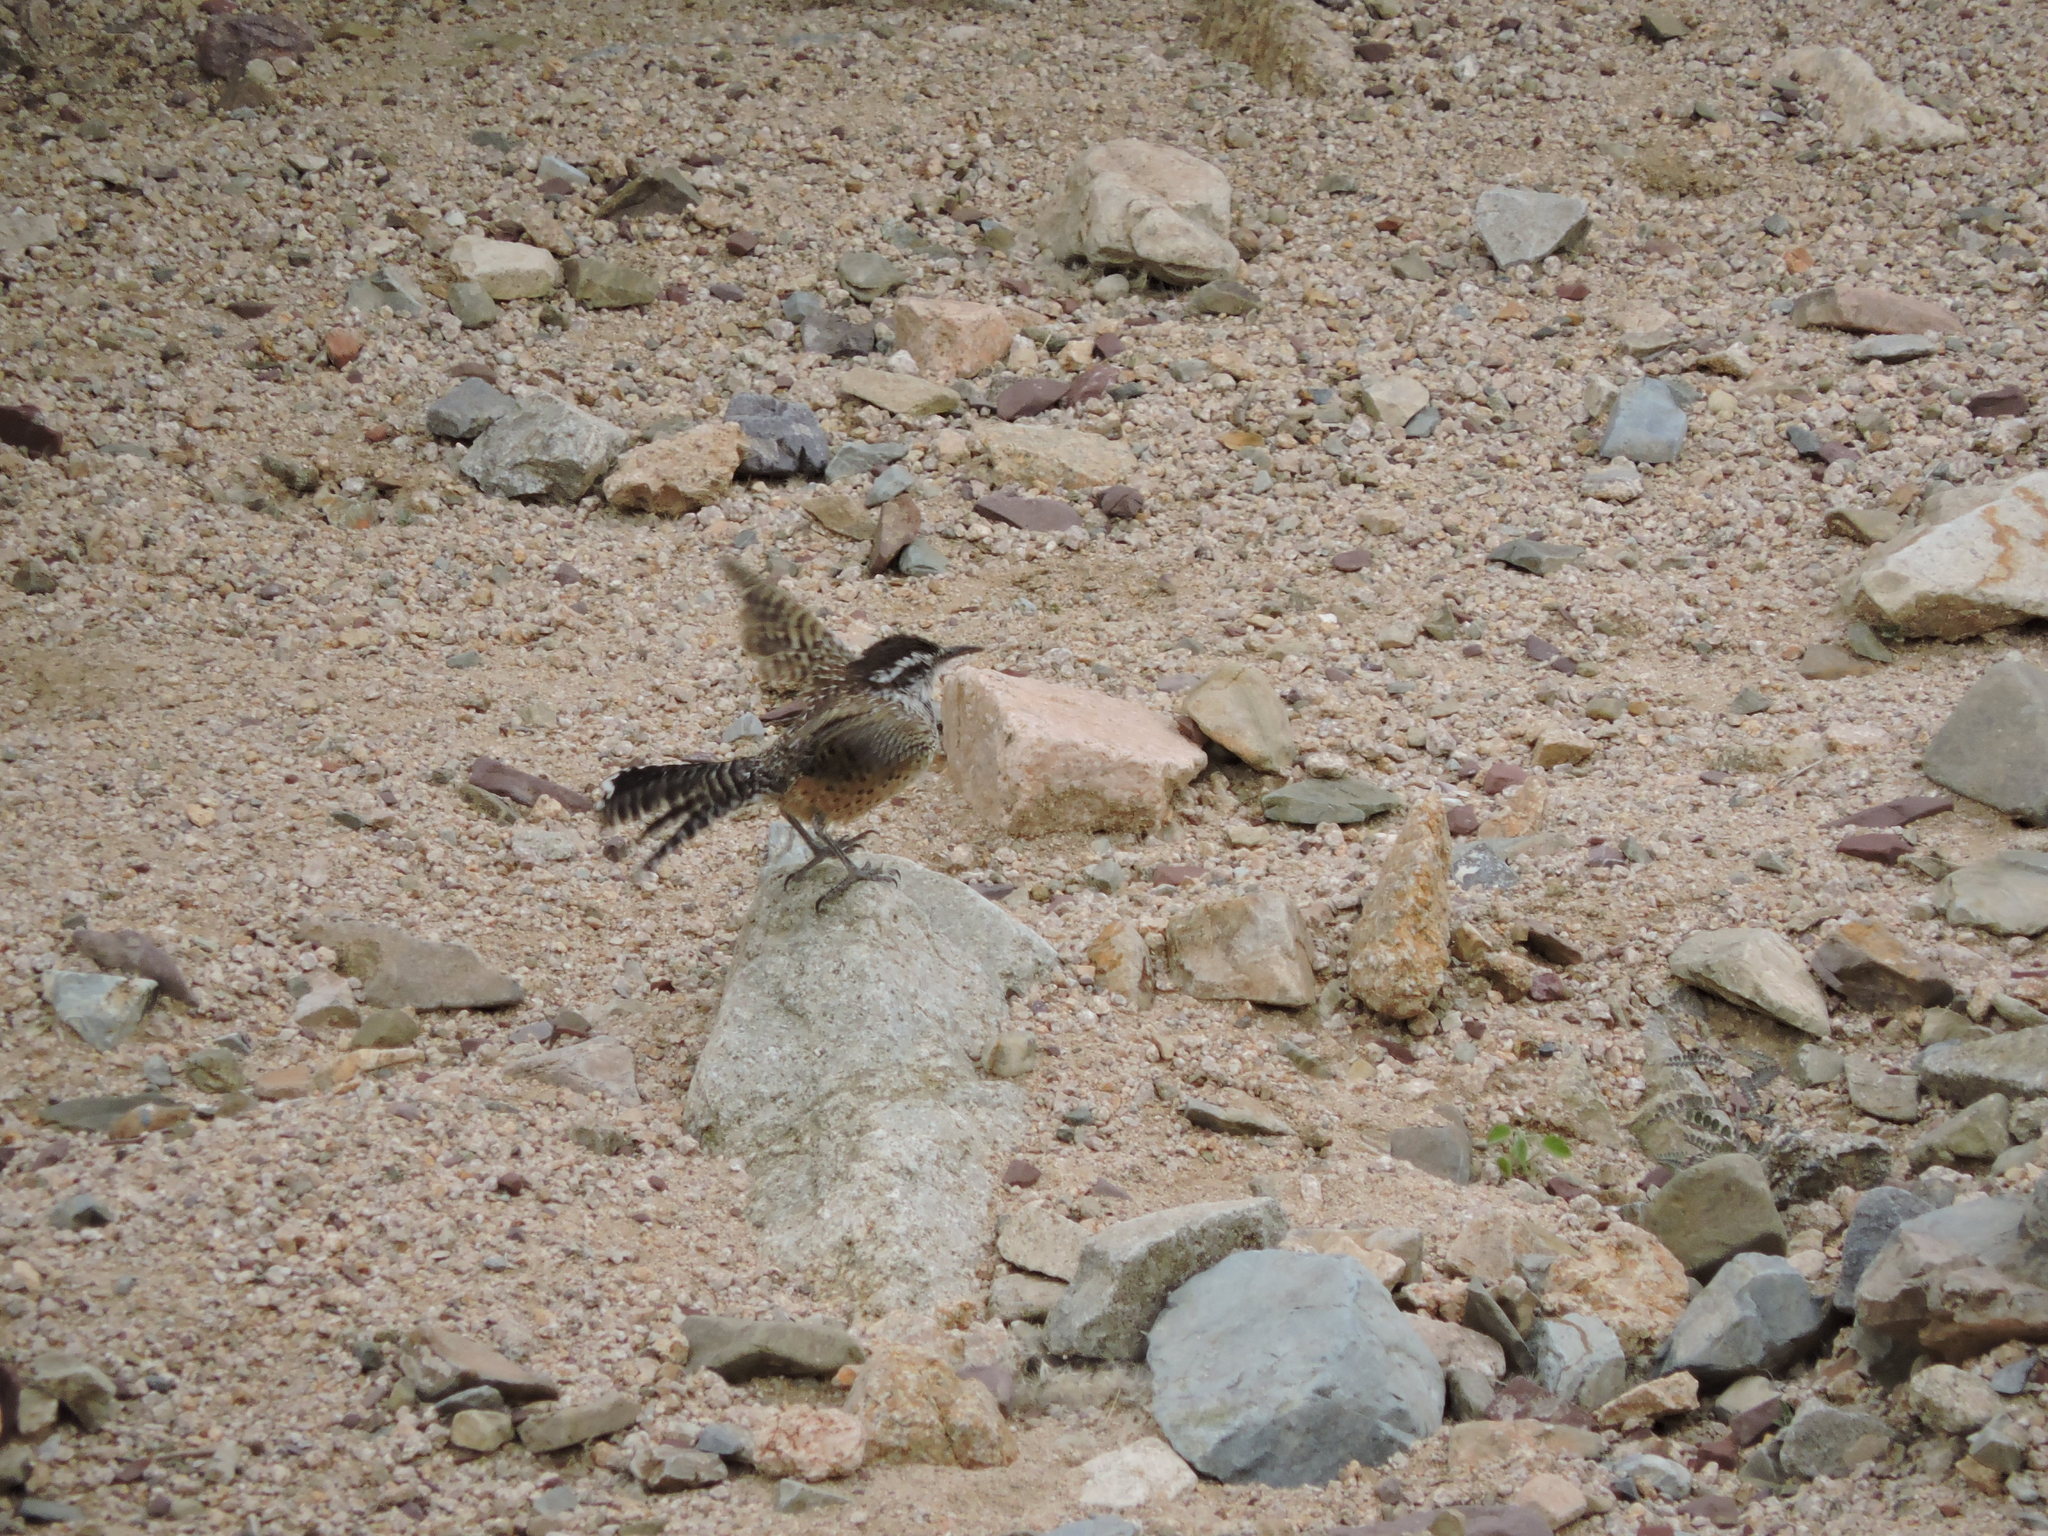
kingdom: Animalia
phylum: Chordata
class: Aves
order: Passeriformes
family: Troglodytidae
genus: Campylorhynchus
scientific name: Campylorhynchus brunneicapillus
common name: Cactus wren
